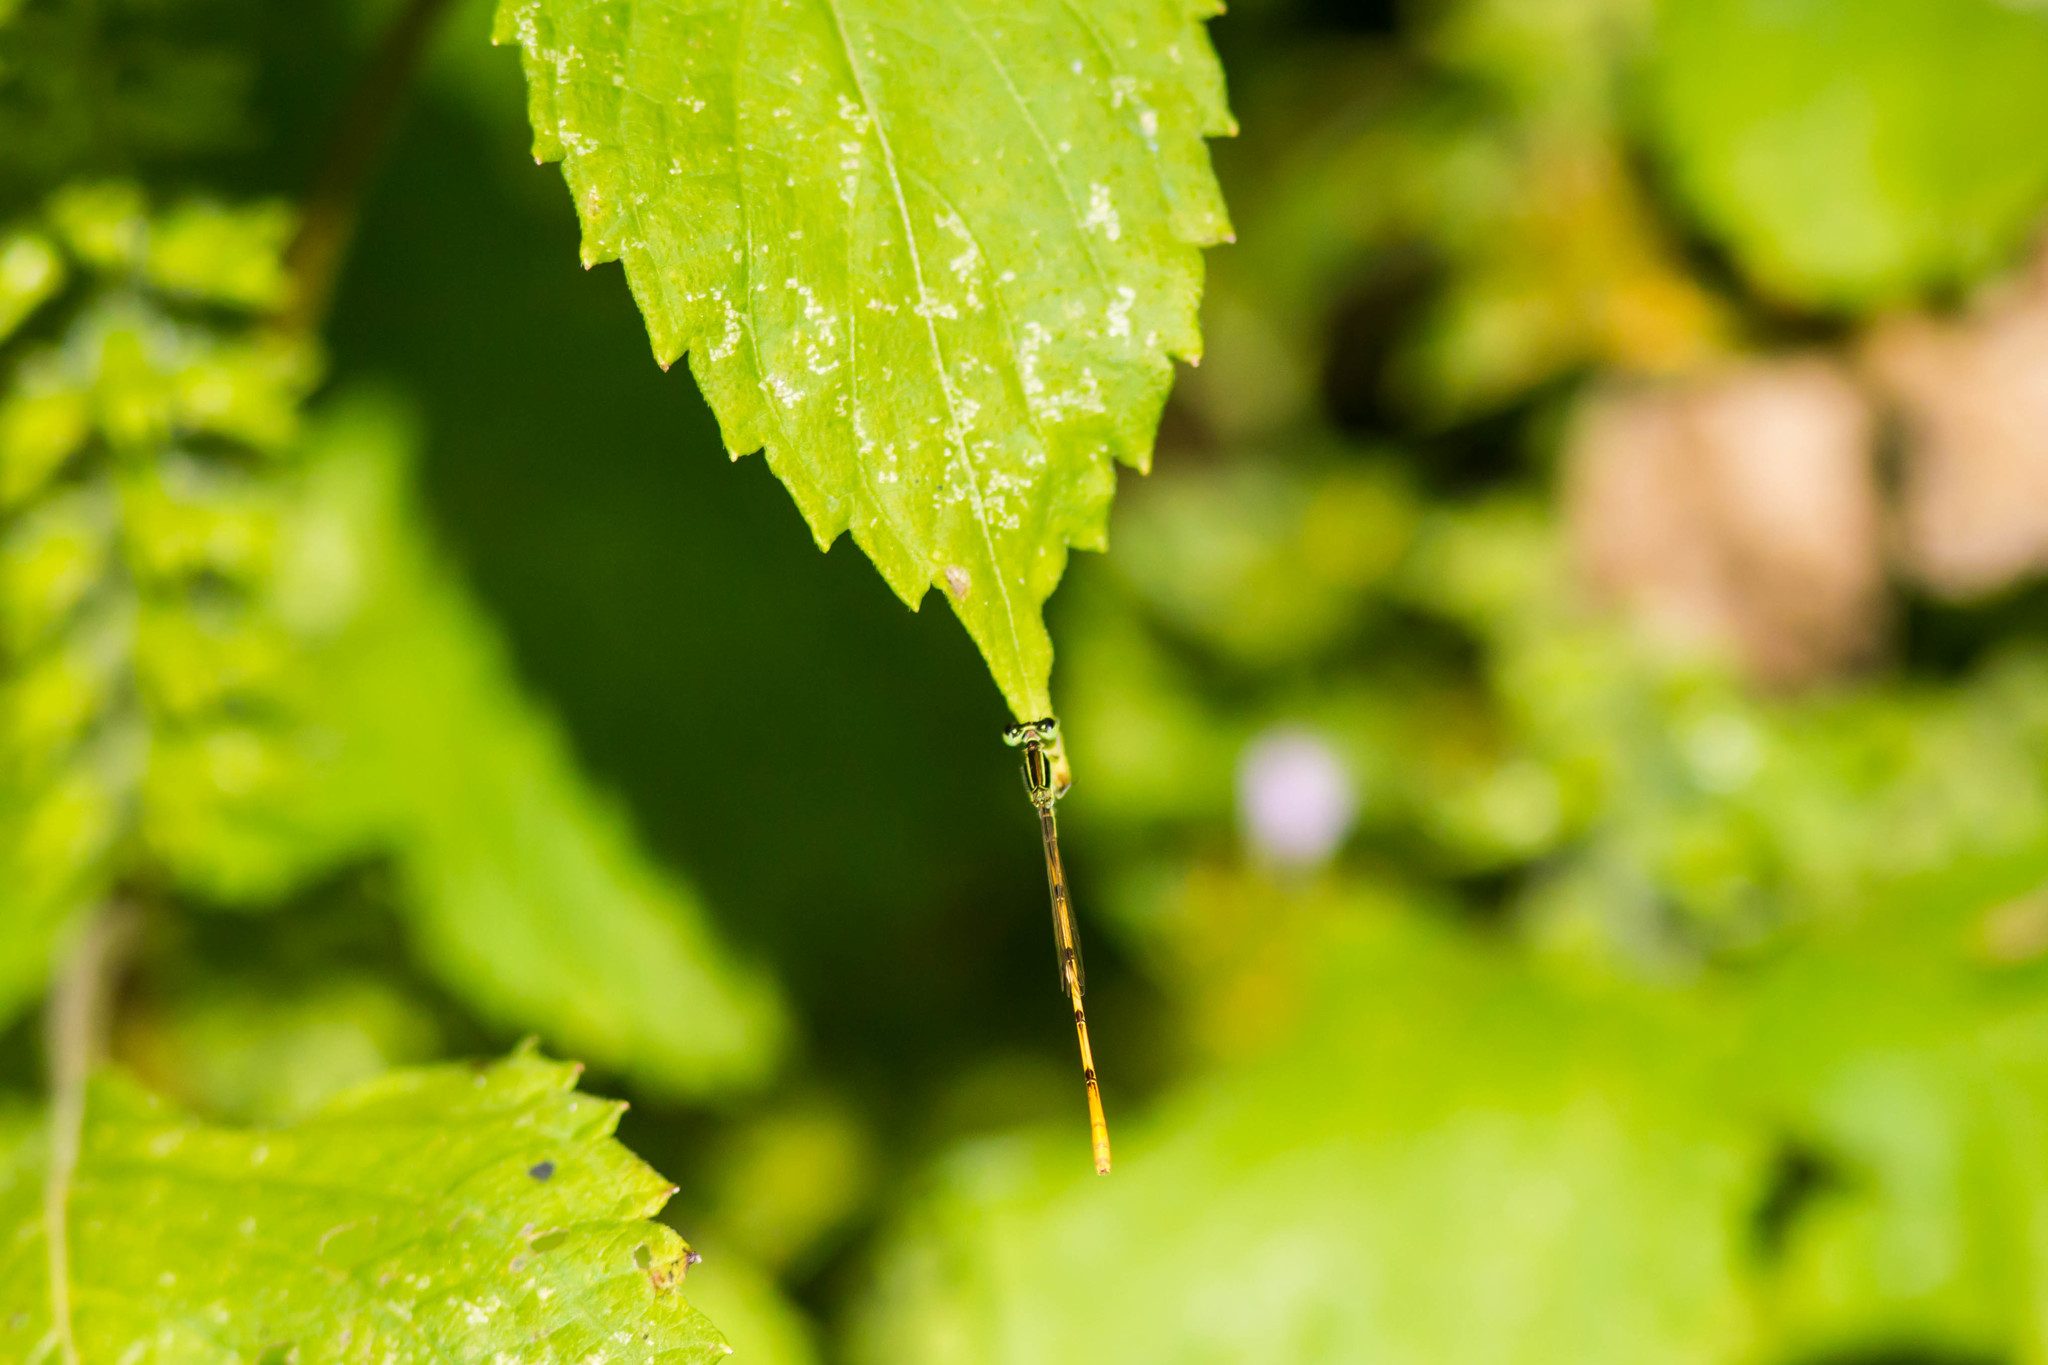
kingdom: Animalia
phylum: Arthropoda
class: Insecta
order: Odonata
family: Coenagrionidae
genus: Ischnura
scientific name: Ischnura hastata
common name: Citrine forktail
